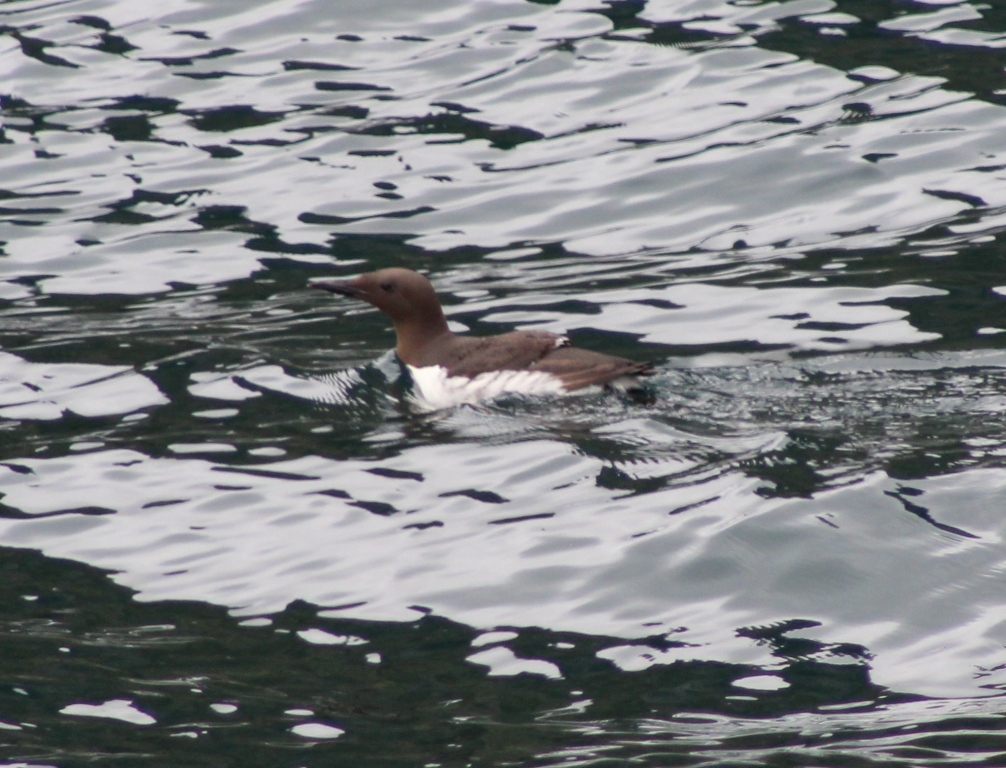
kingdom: Animalia
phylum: Chordata
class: Aves
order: Charadriiformes
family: Alcidae
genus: Uria
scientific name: Uria aalge
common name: Common murre
